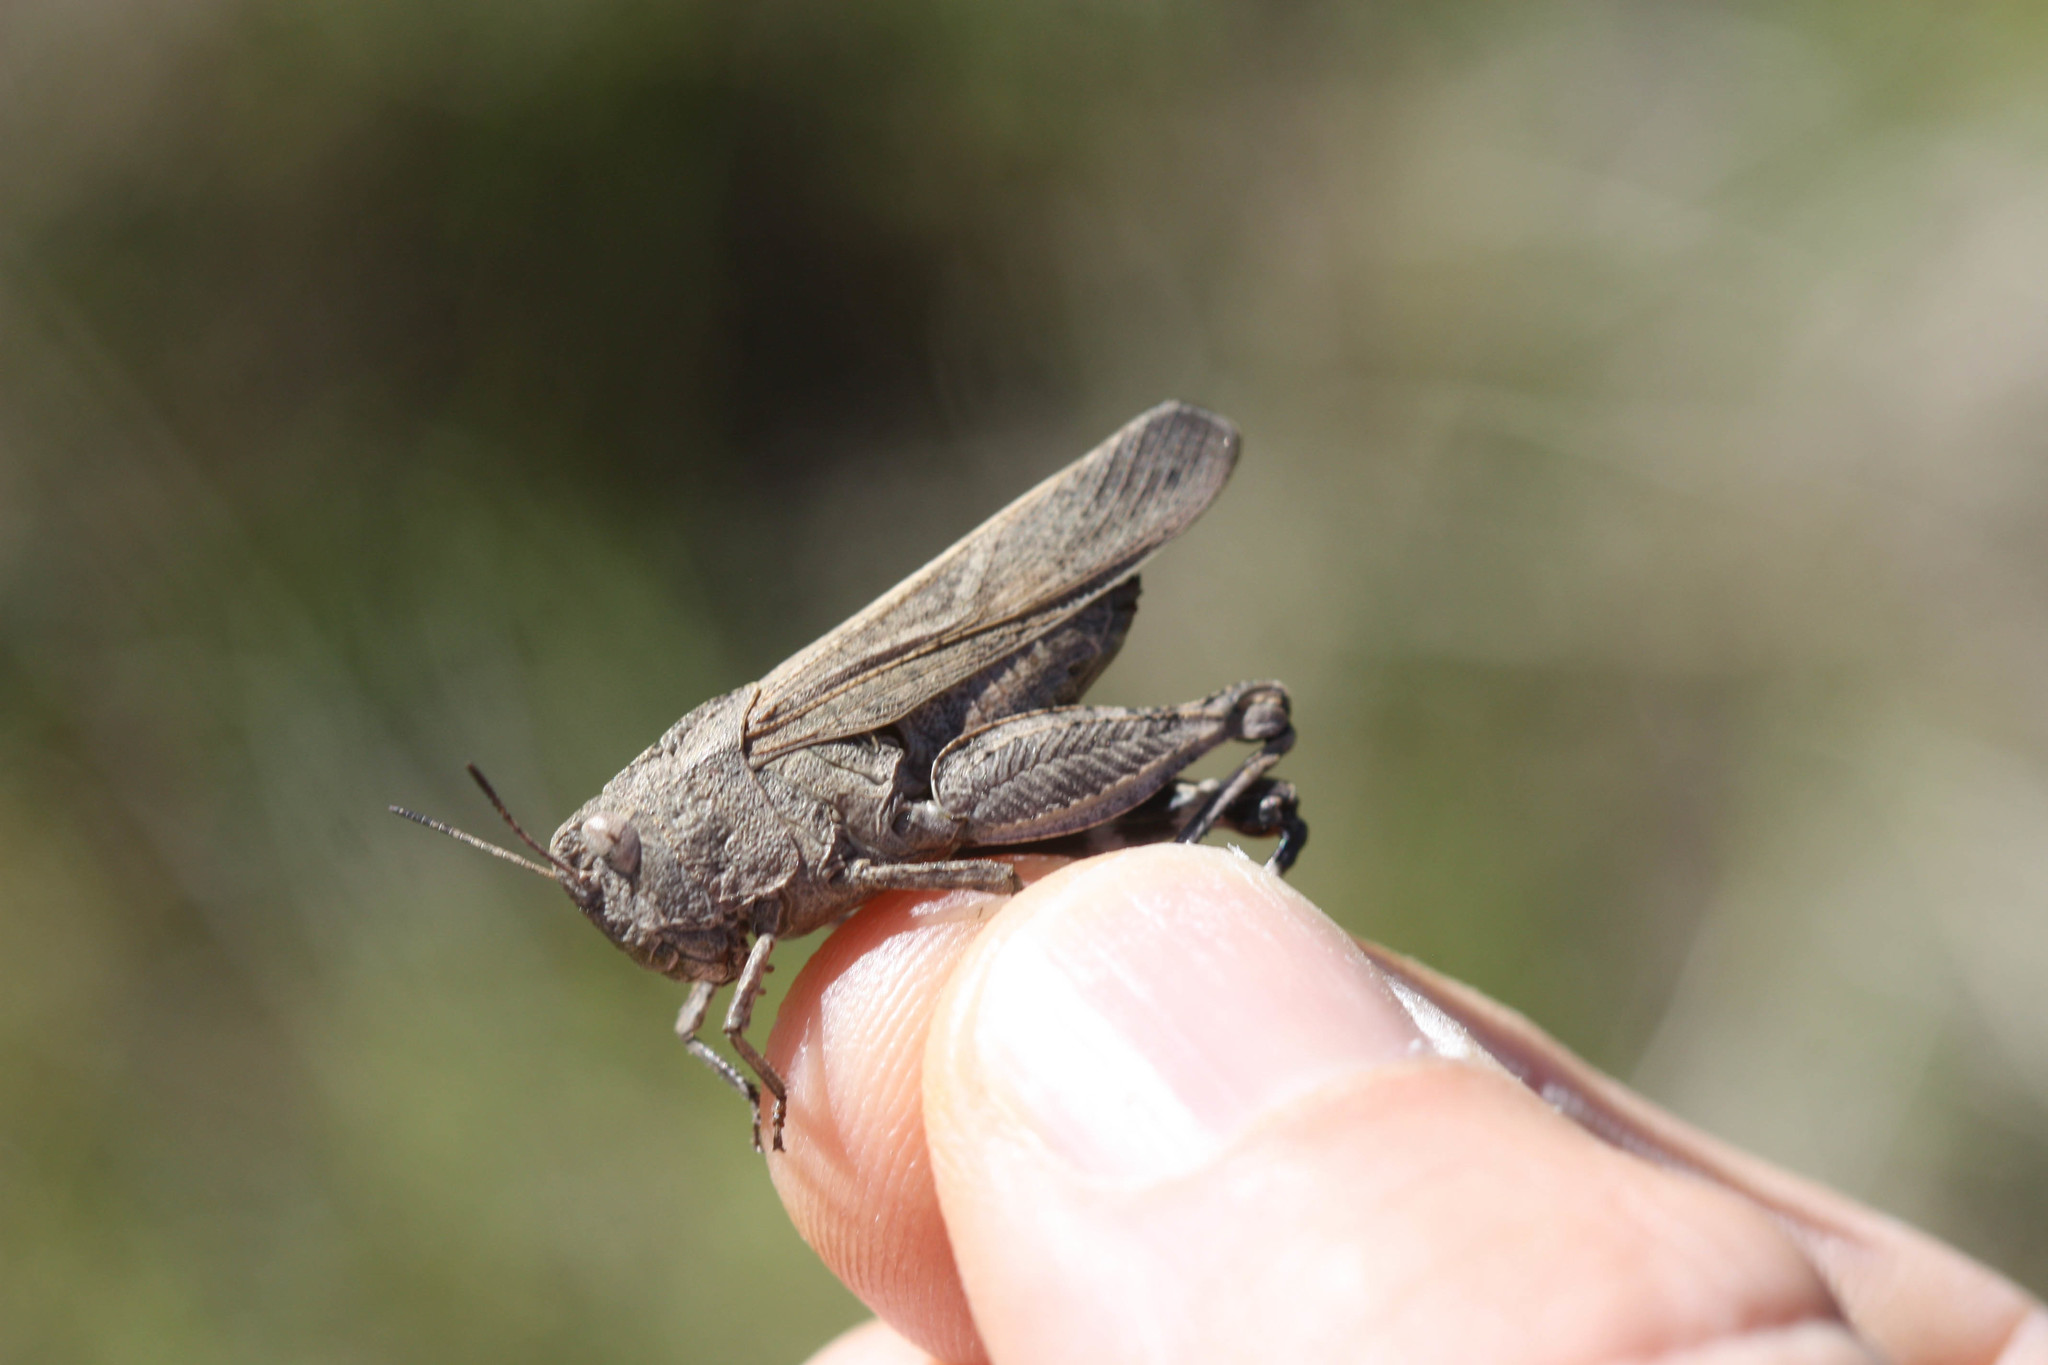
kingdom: Animalia
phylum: Arthropoda
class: Insecta
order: Orthoptera
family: Acrididae
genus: Arphia
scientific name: Arphia behrensi
